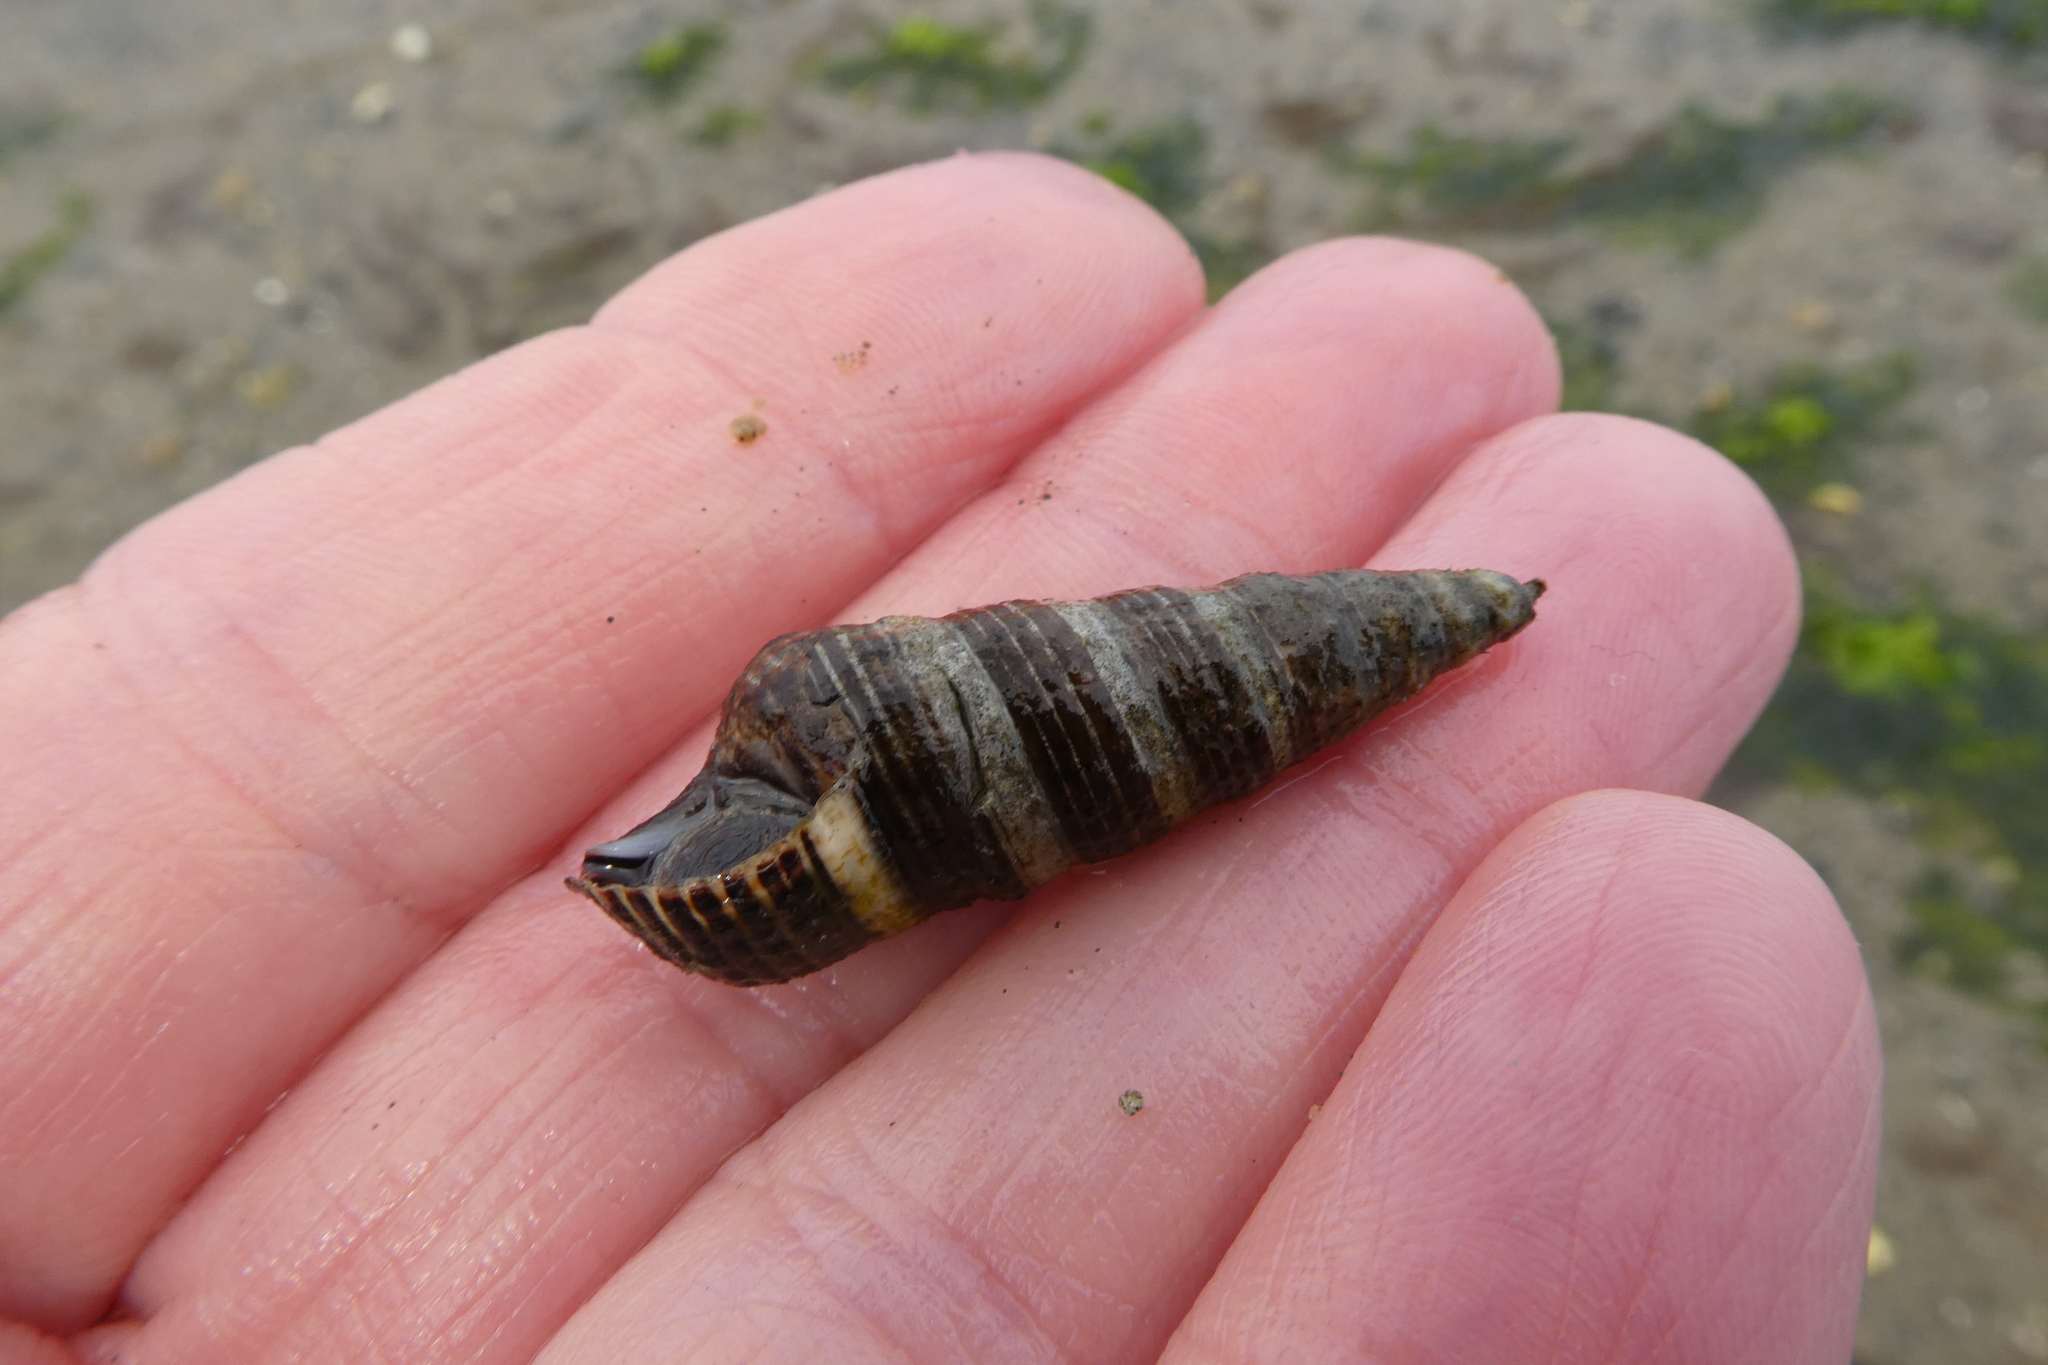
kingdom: Animalia
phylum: Mollusca
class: Gastropoda
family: Batillariidae
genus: Batillaria
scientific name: Batillaria attramentaria
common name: Japanese false cerith
